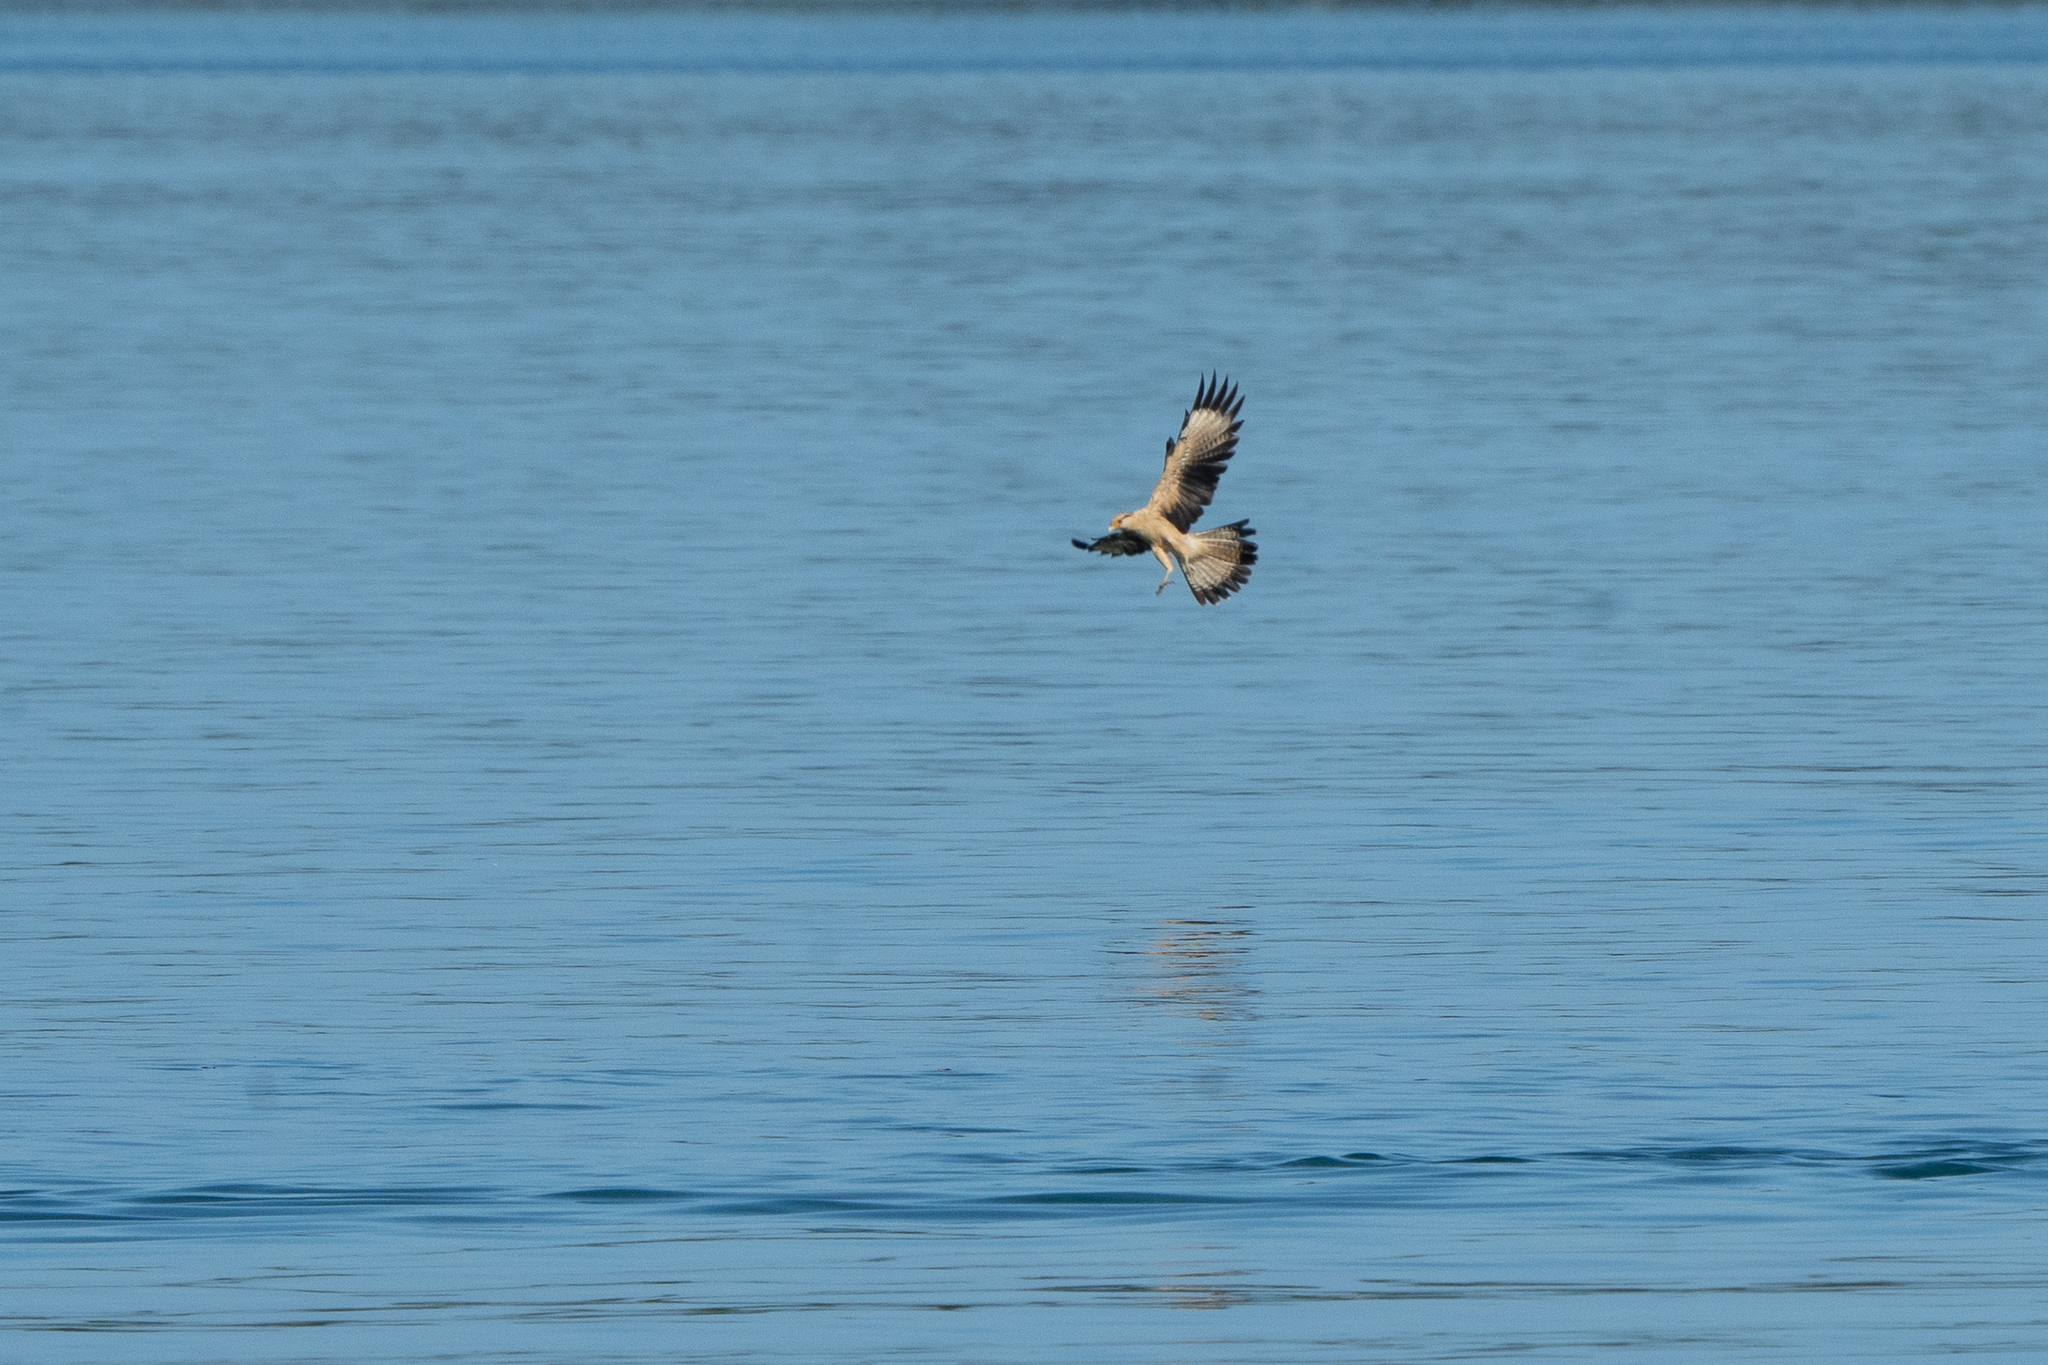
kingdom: Animalia
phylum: Chordata
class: Aves
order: Falconiformes
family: Falconidae
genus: Daptrius
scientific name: Daptrius
